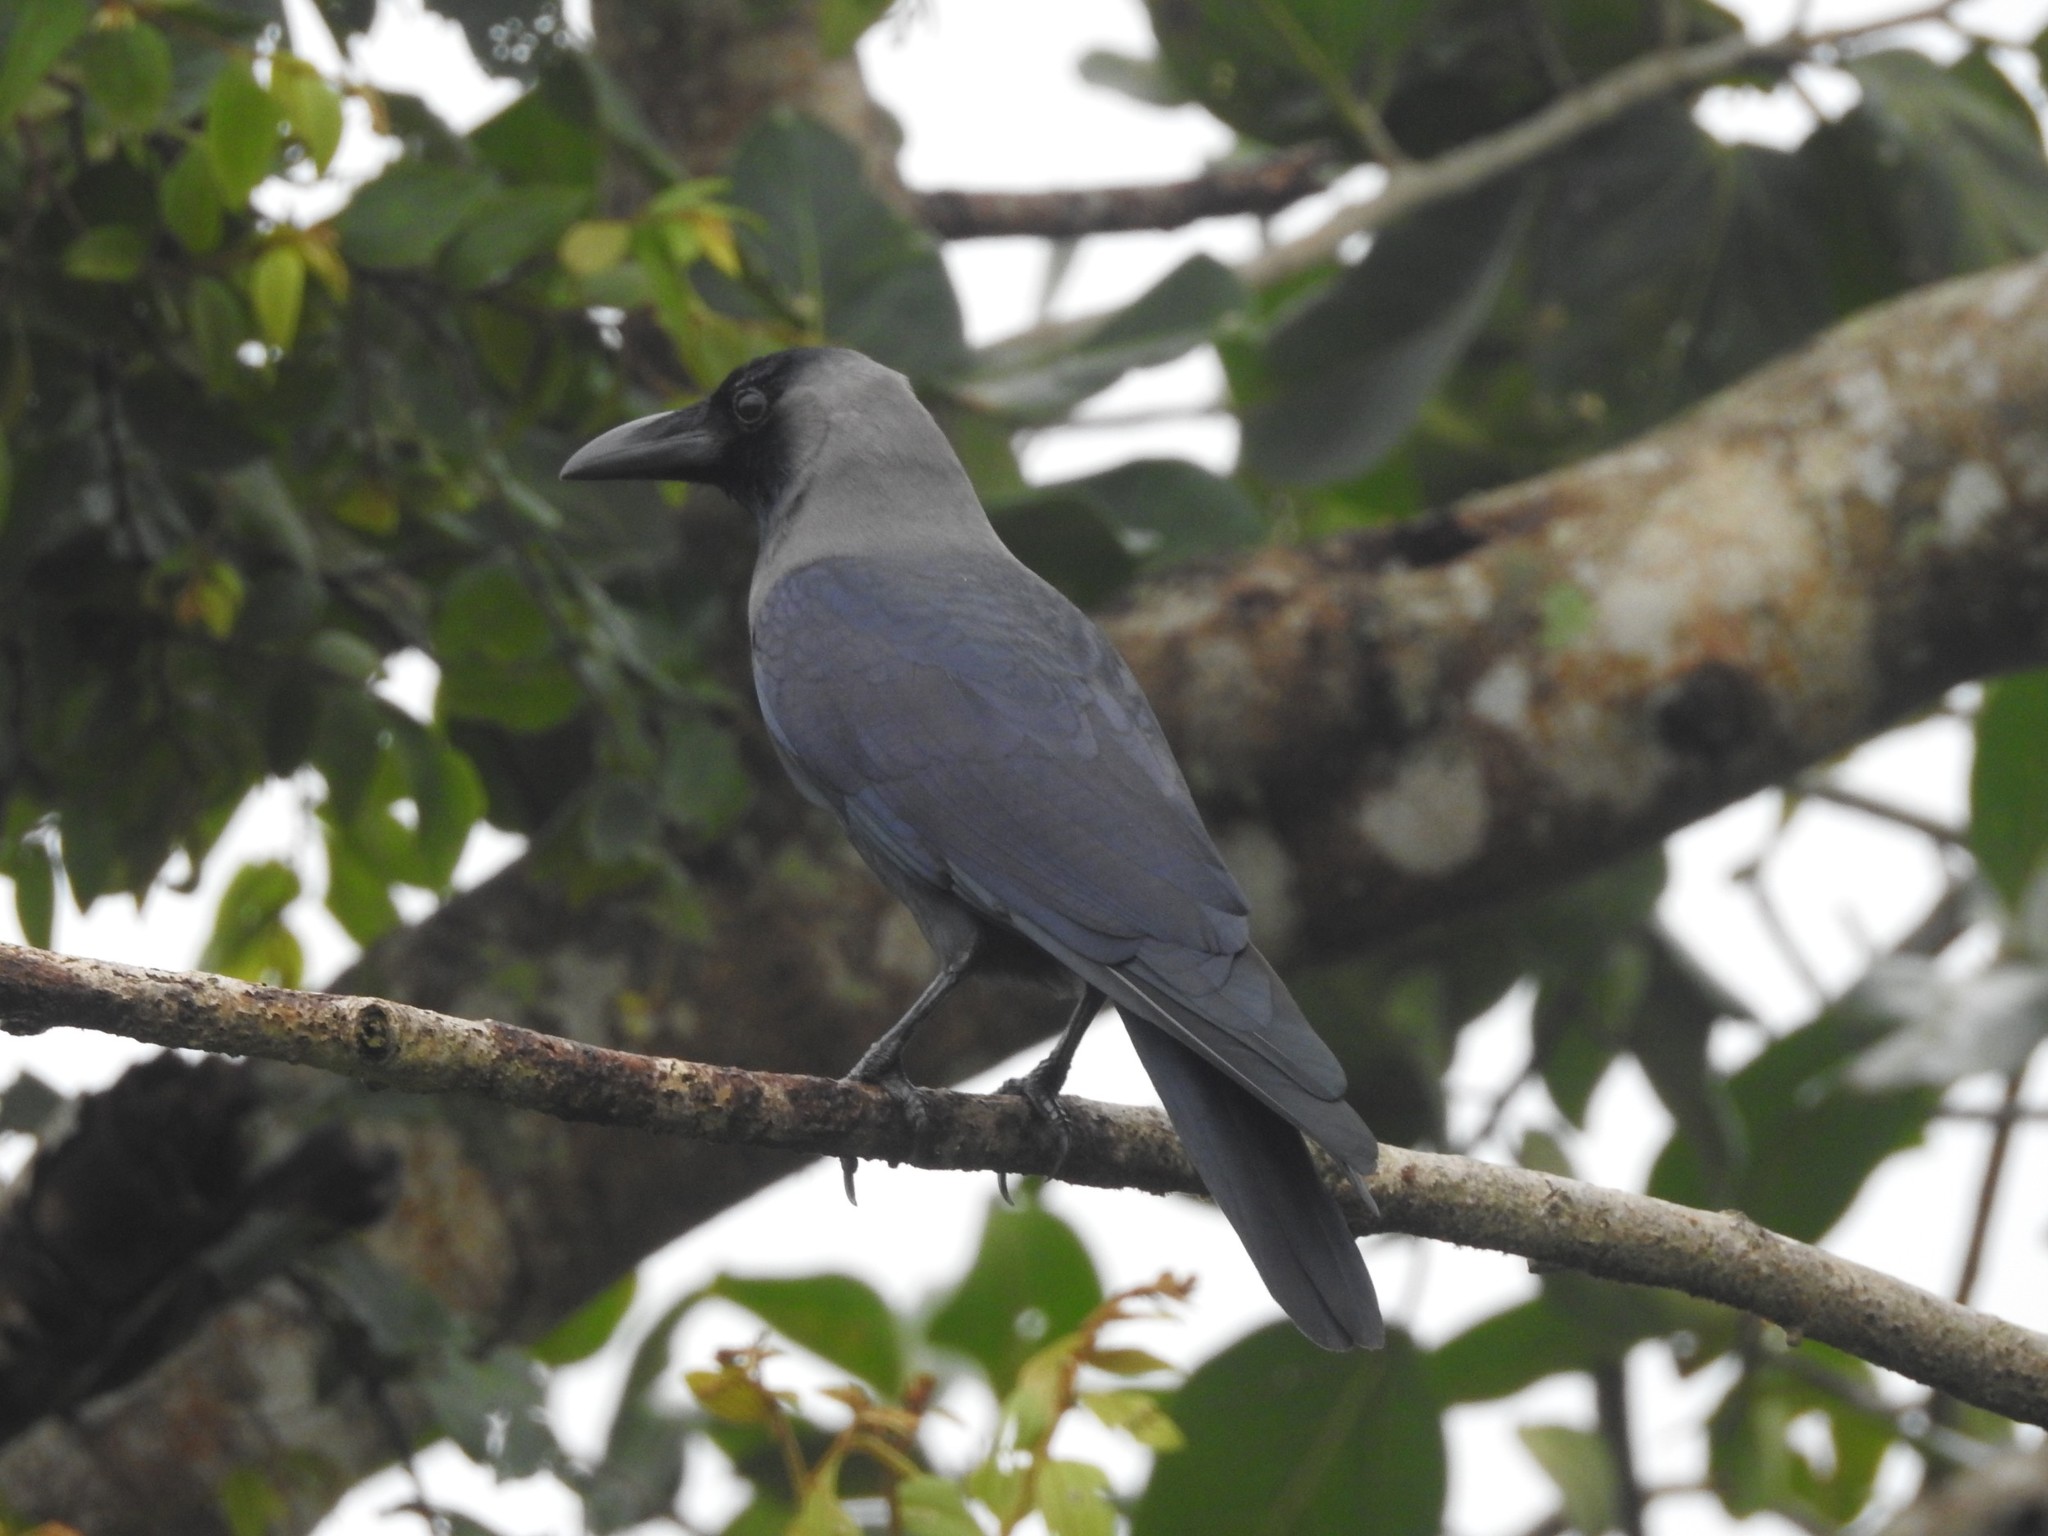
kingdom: Animalia
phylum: Chordata
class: Aves
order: Passeriformes
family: Corvidae
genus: Corvus
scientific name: Corvus splendens
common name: House crow
